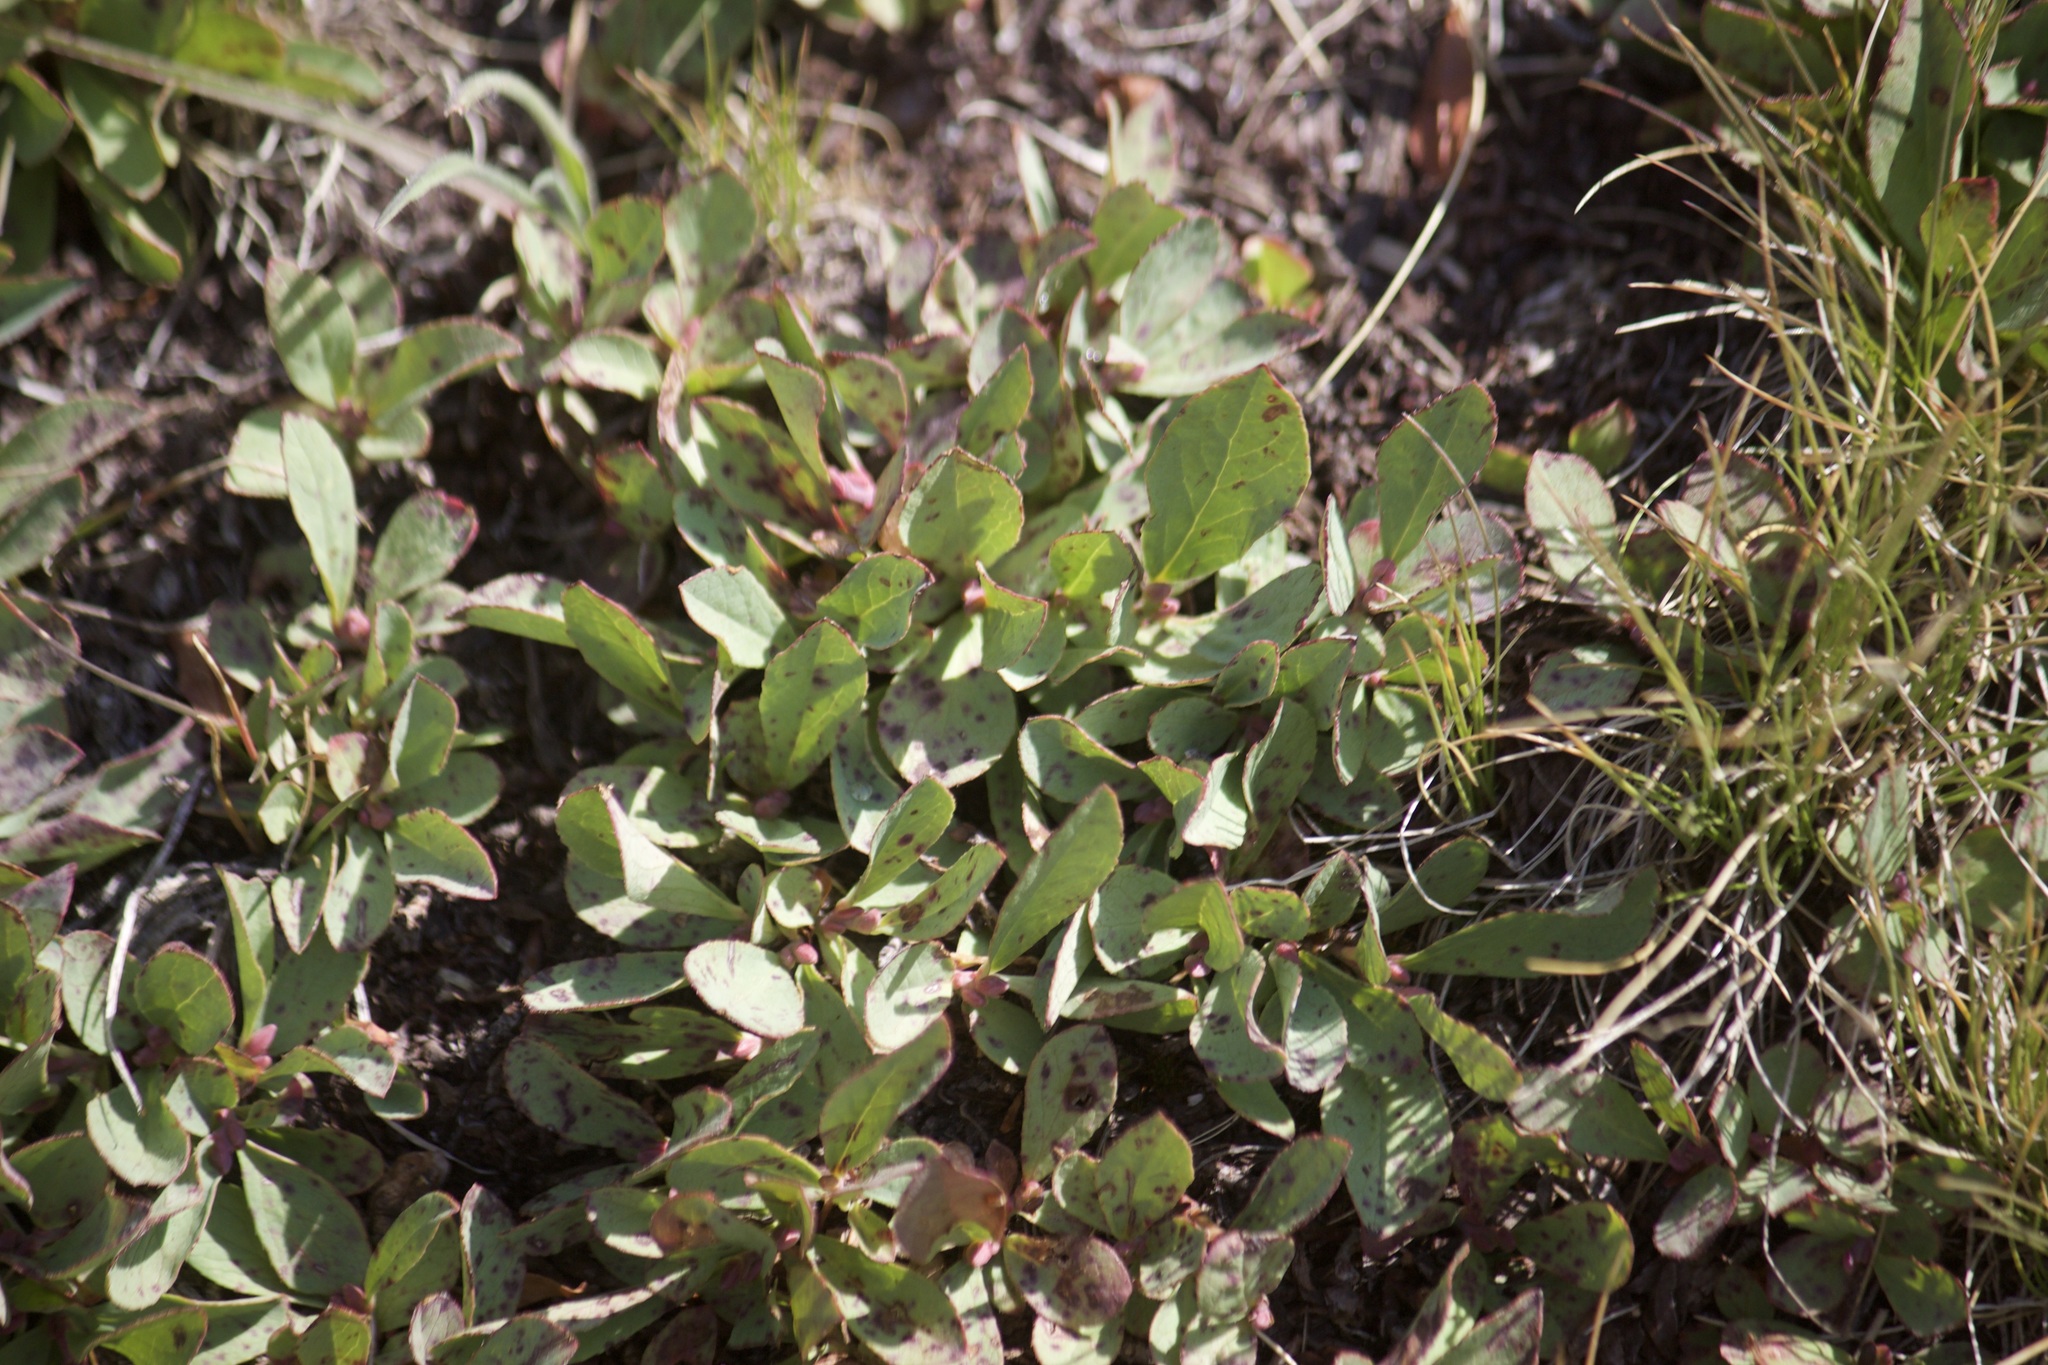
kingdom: Plantae
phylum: Tracheophyta
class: Magnoliopsida
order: Ericales
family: Ericaceae
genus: Vaccinium
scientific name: Vaccinium cespitosum
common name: Dwarf bilberry
